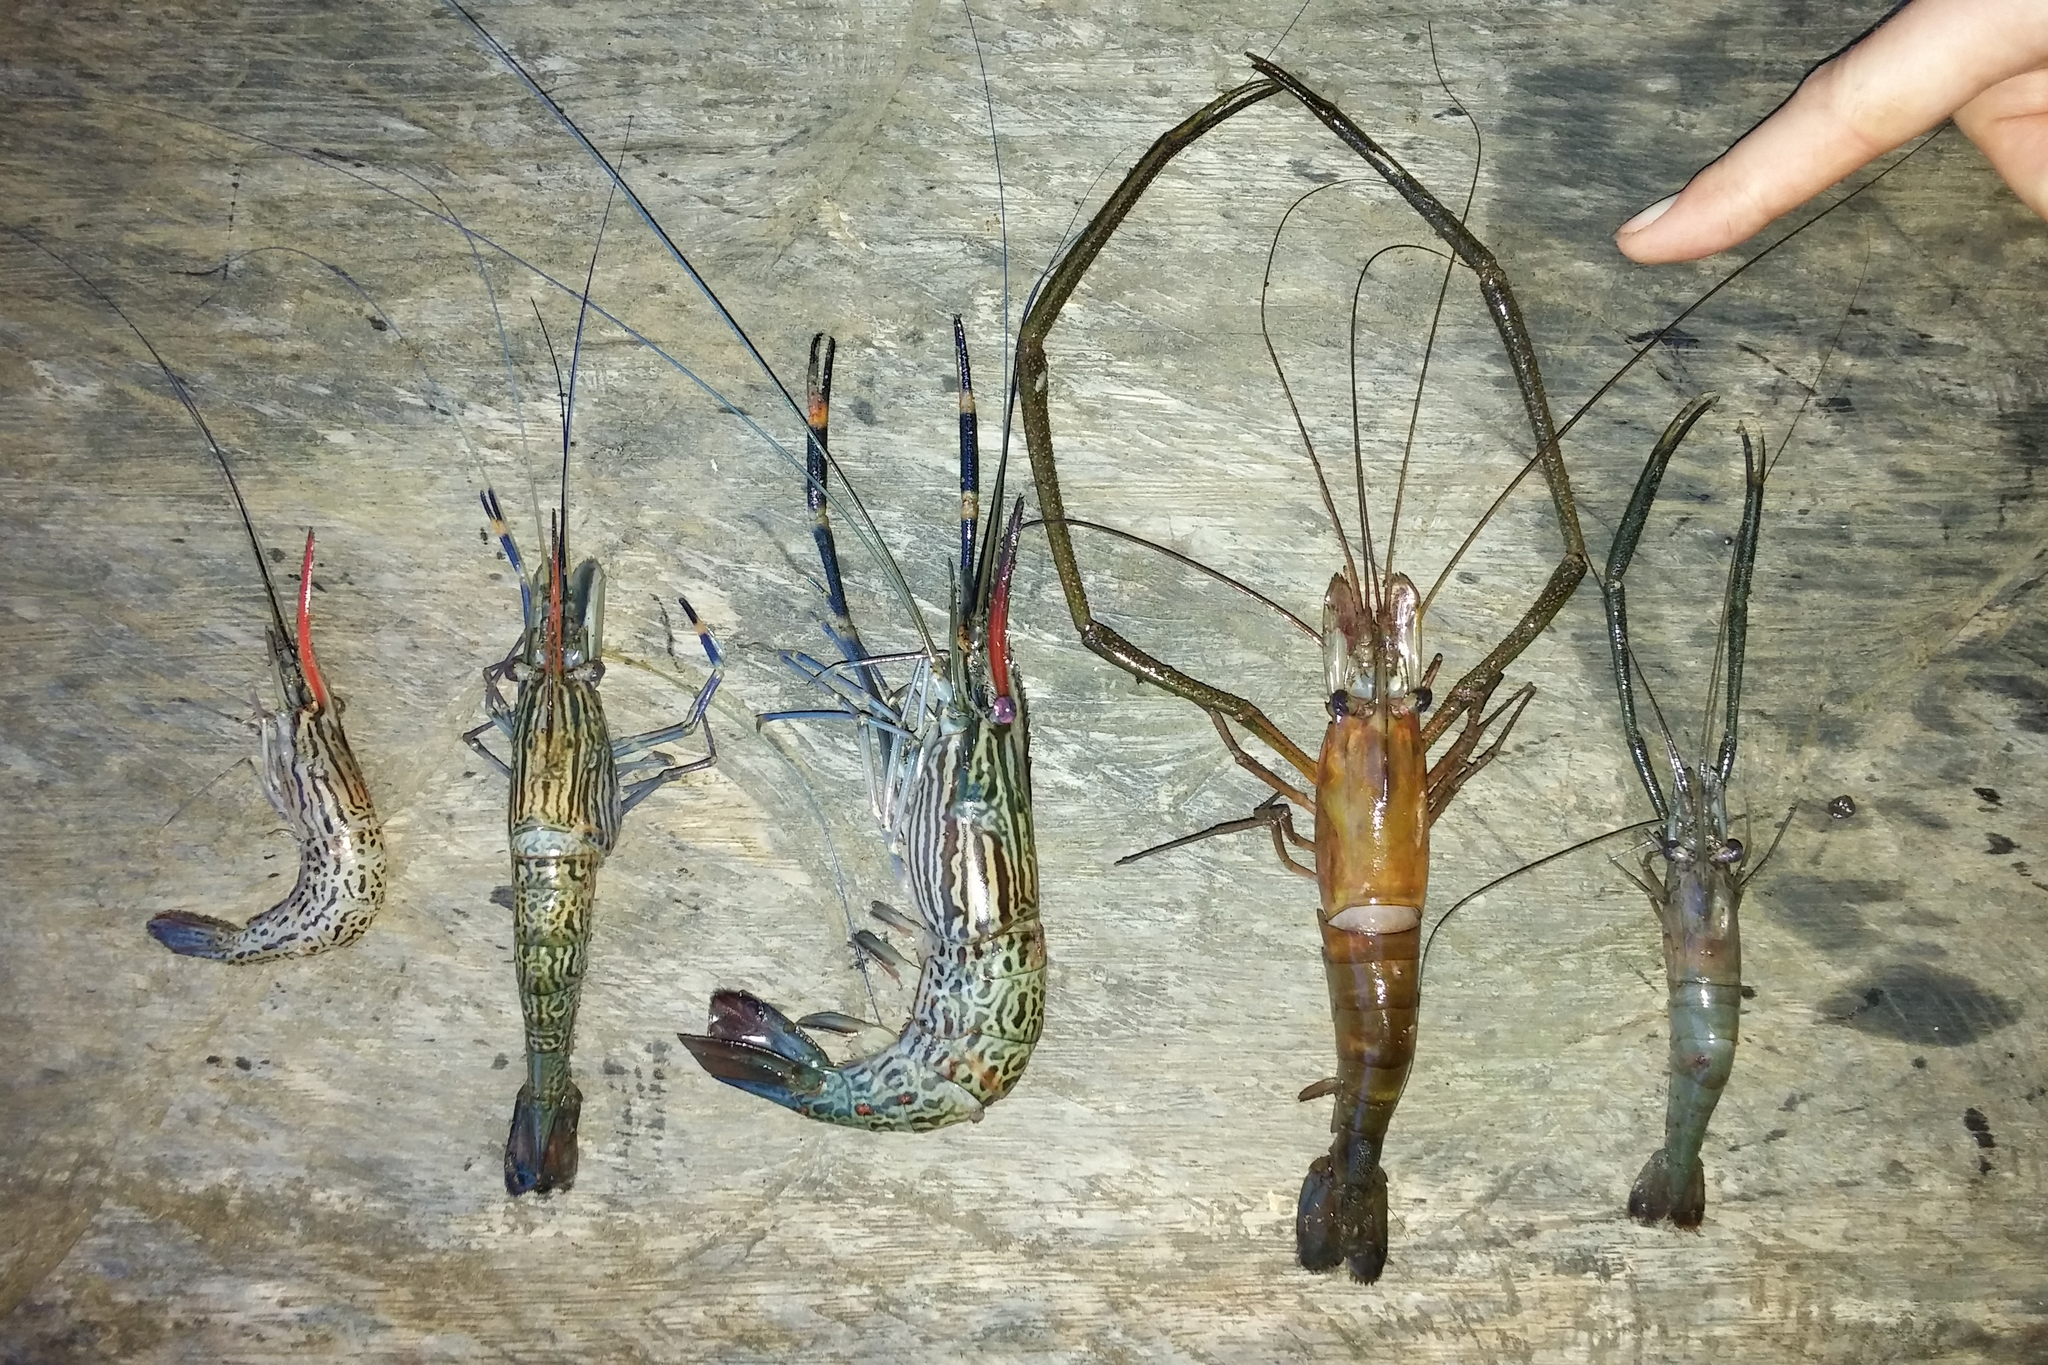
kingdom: Animalia
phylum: Arthropoda
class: Malacostraca
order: Decapoda
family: Palaemonidae
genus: Macrobrachium
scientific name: Macrobrachium spinipes
